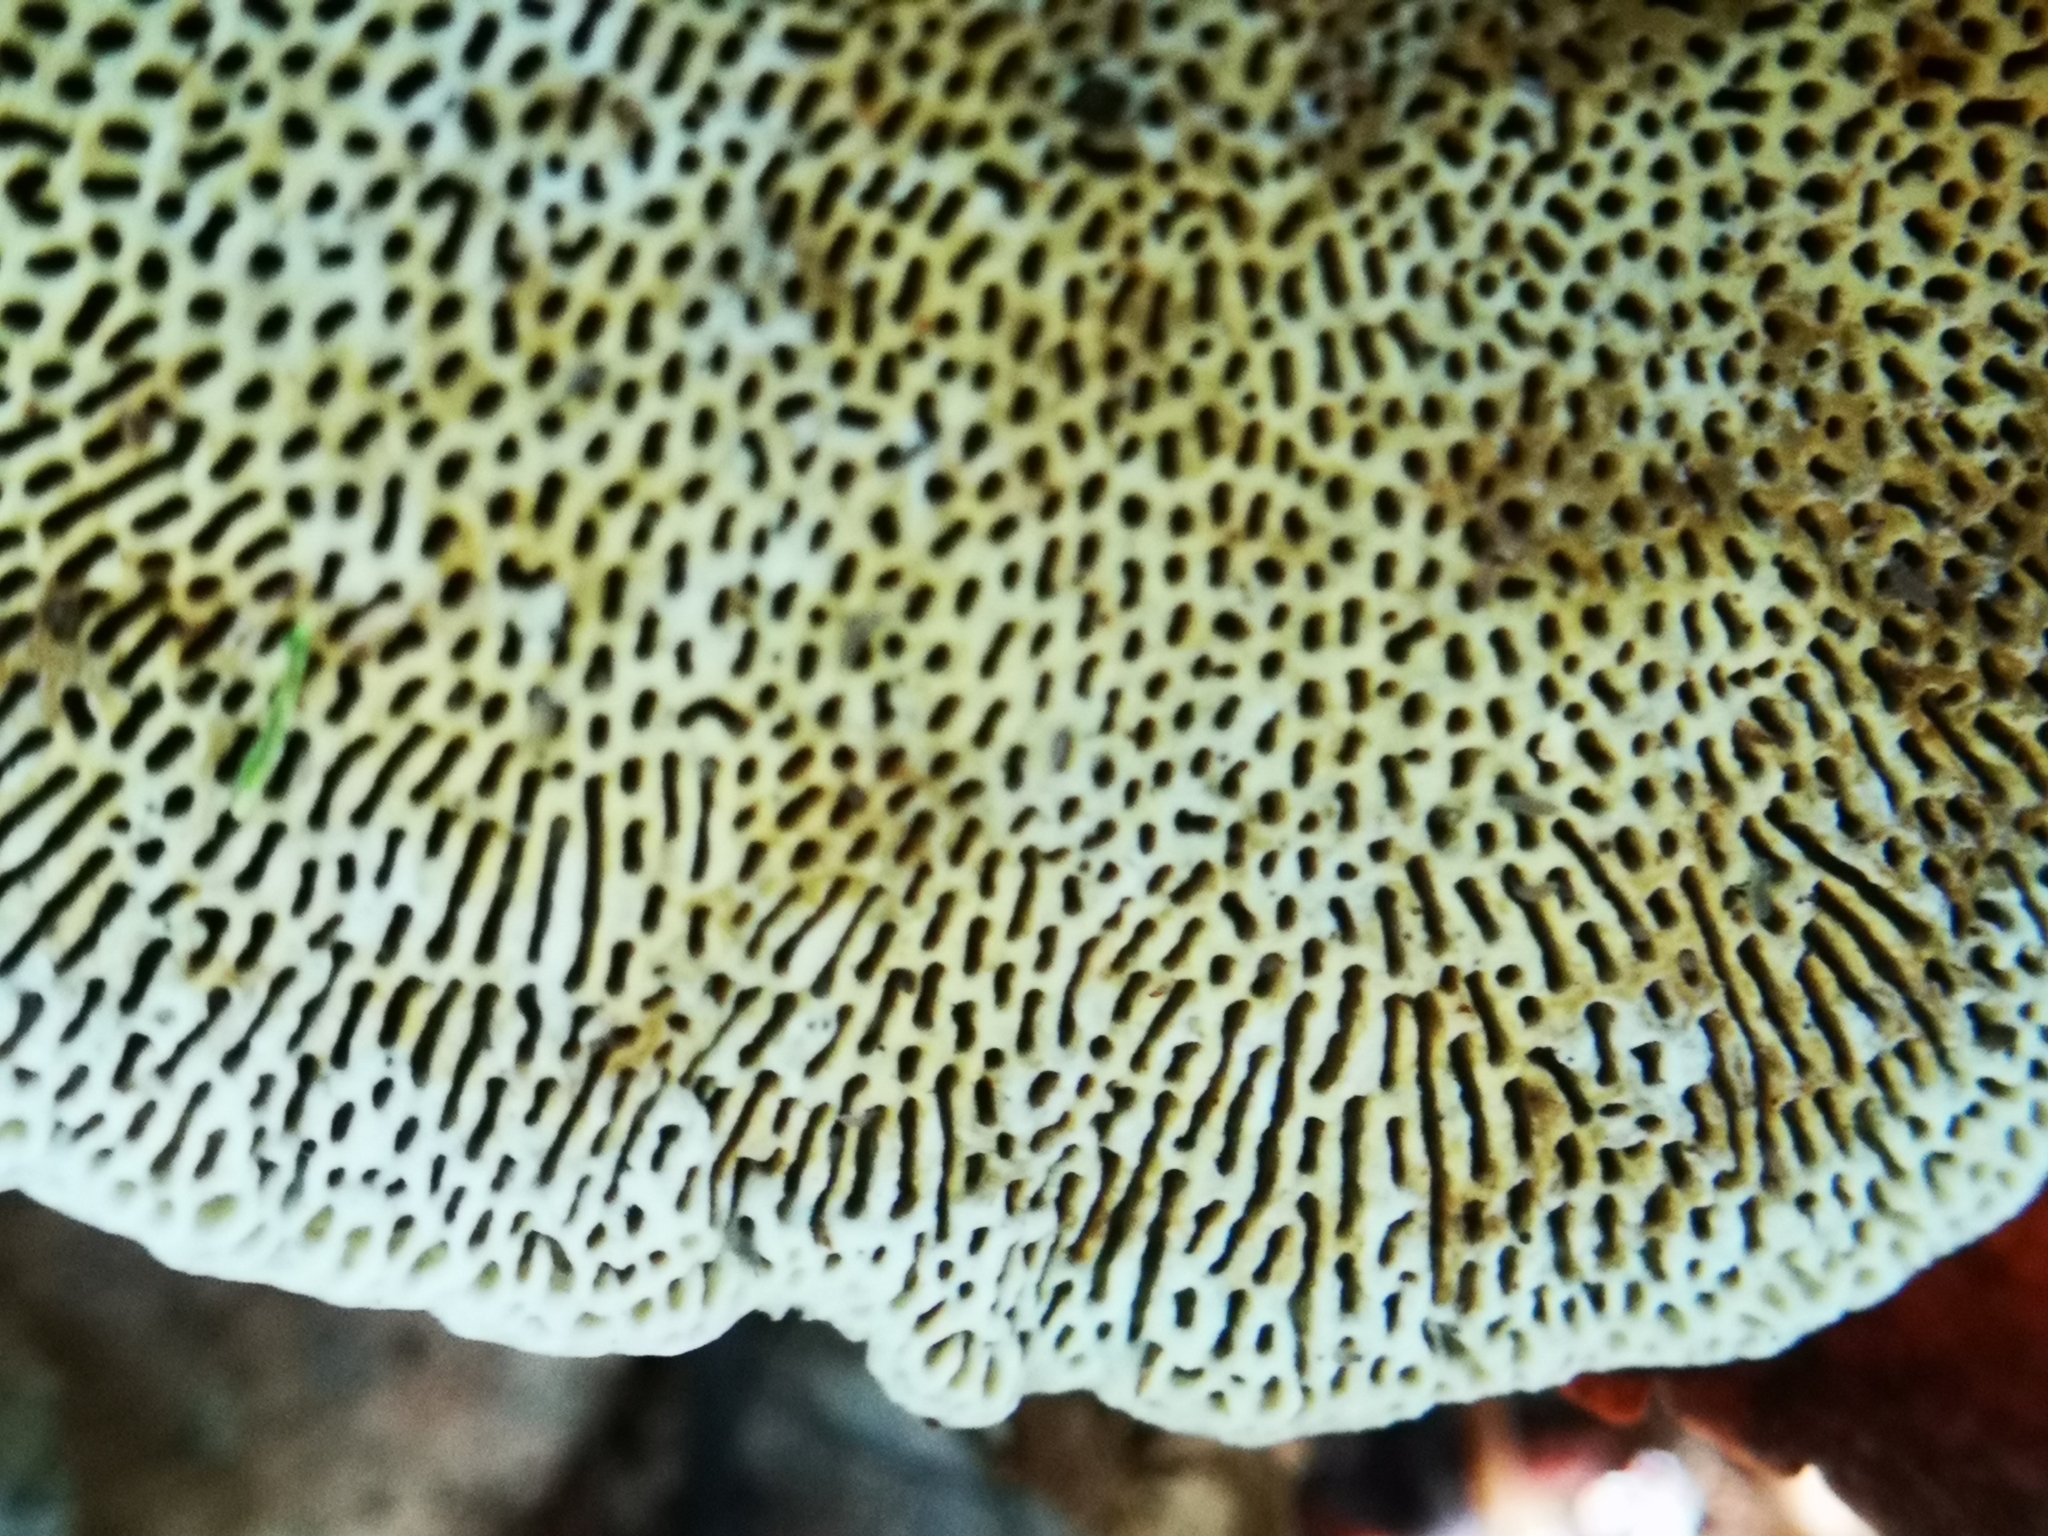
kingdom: Fungi
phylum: Basidiomycota
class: Agaricomycetes
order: Polyporales
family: Polyporaceae
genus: Daedaleopsis
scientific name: Daedaleopsis confragosa
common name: Blushing bracket
